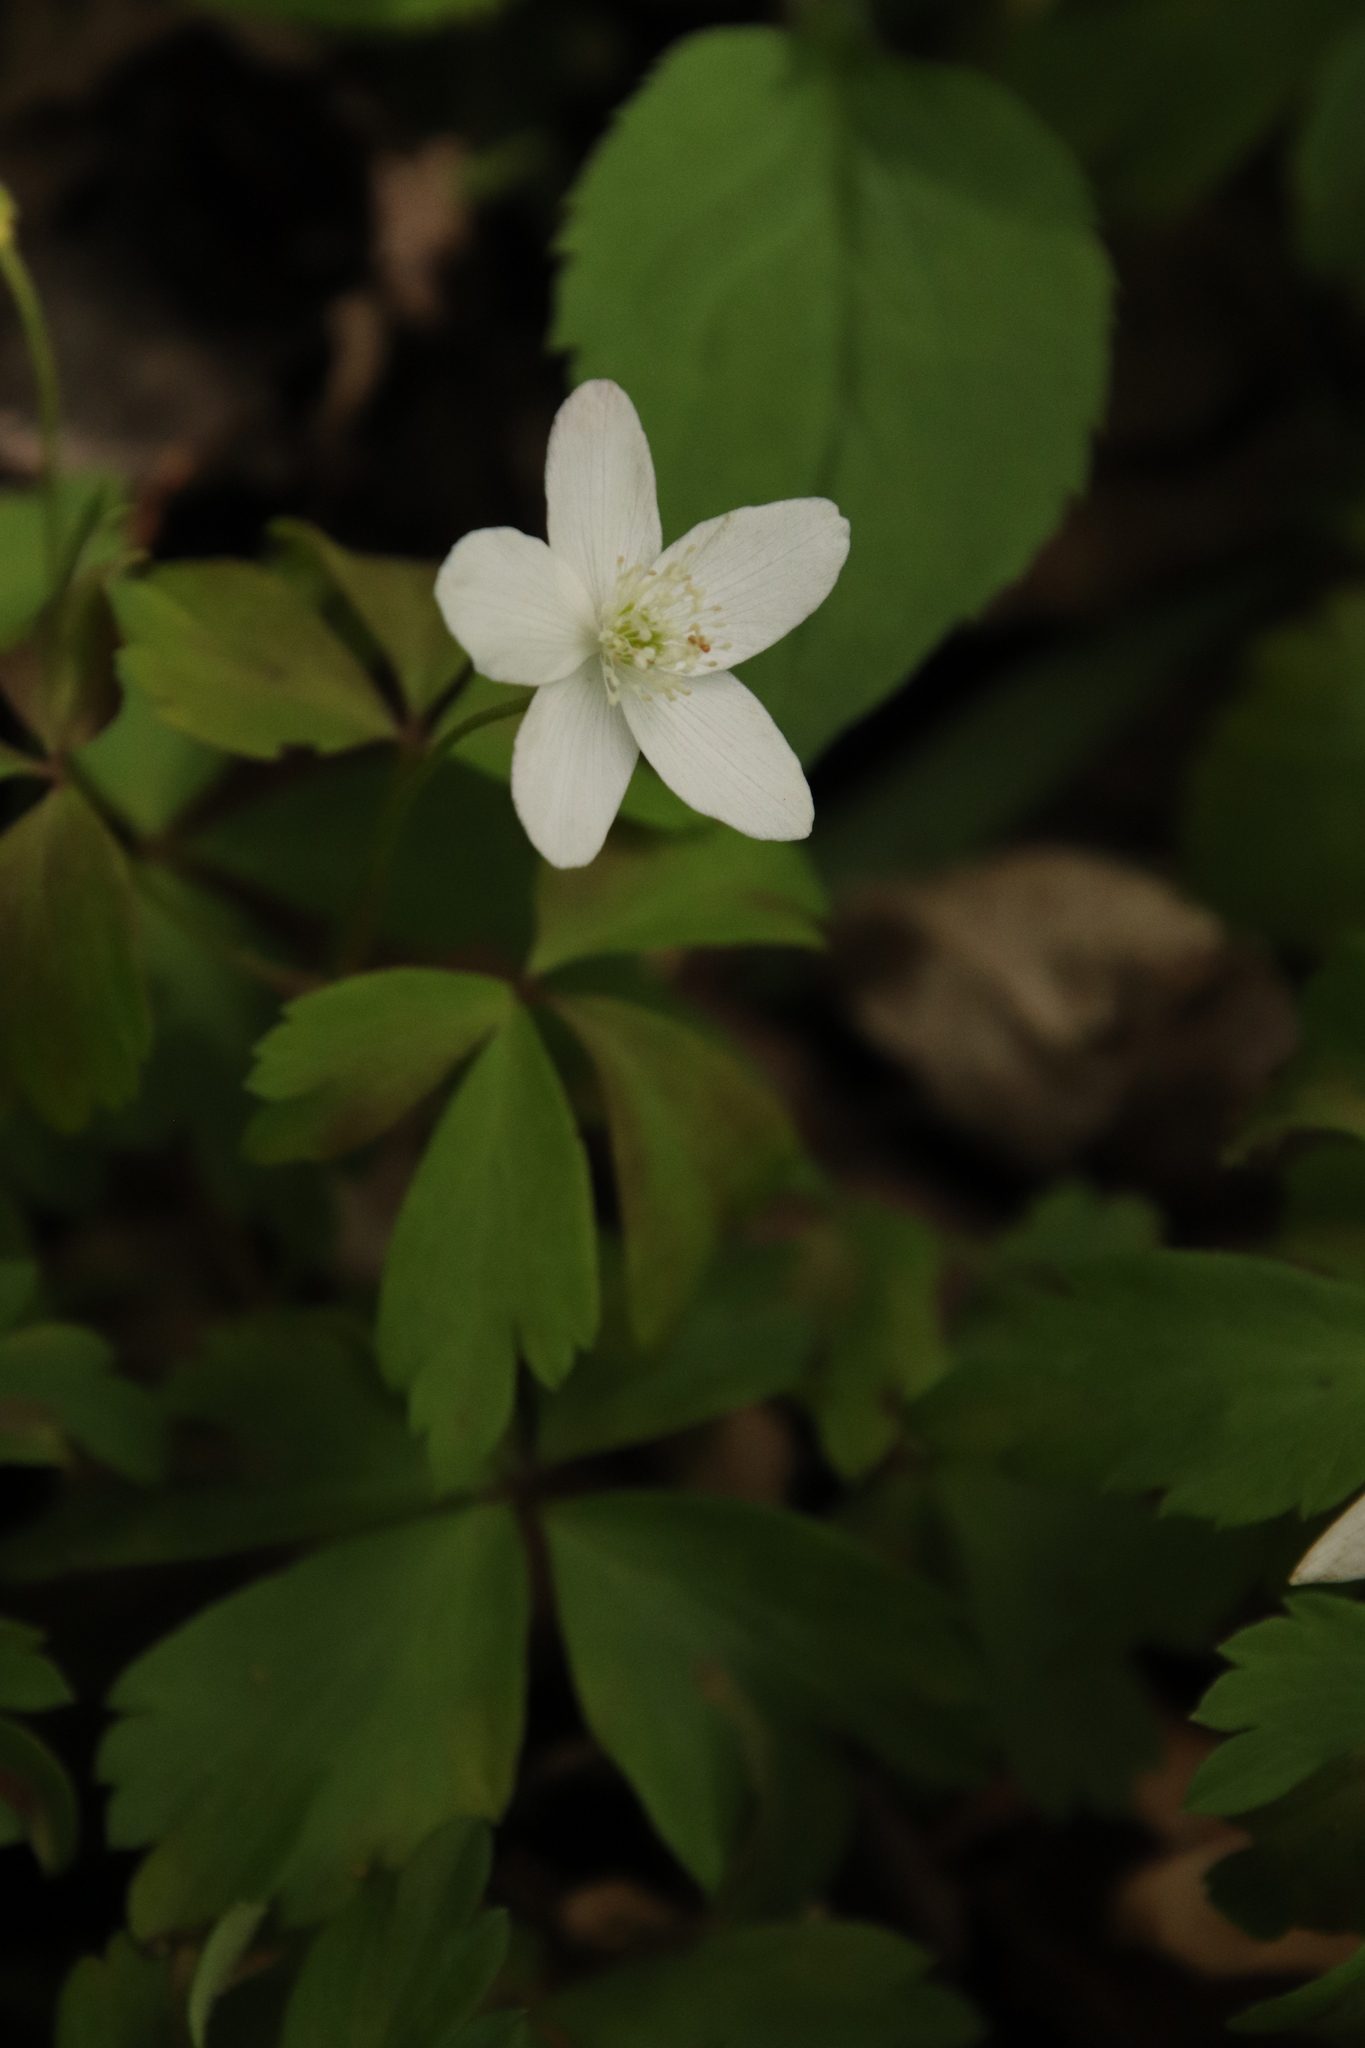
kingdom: Plantae
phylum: Tracheophyta
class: Magnoliopsida
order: Ranunculales
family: Ranunculaceae
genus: Anemone
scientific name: Anemone quinquefolia
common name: Wood anemone
